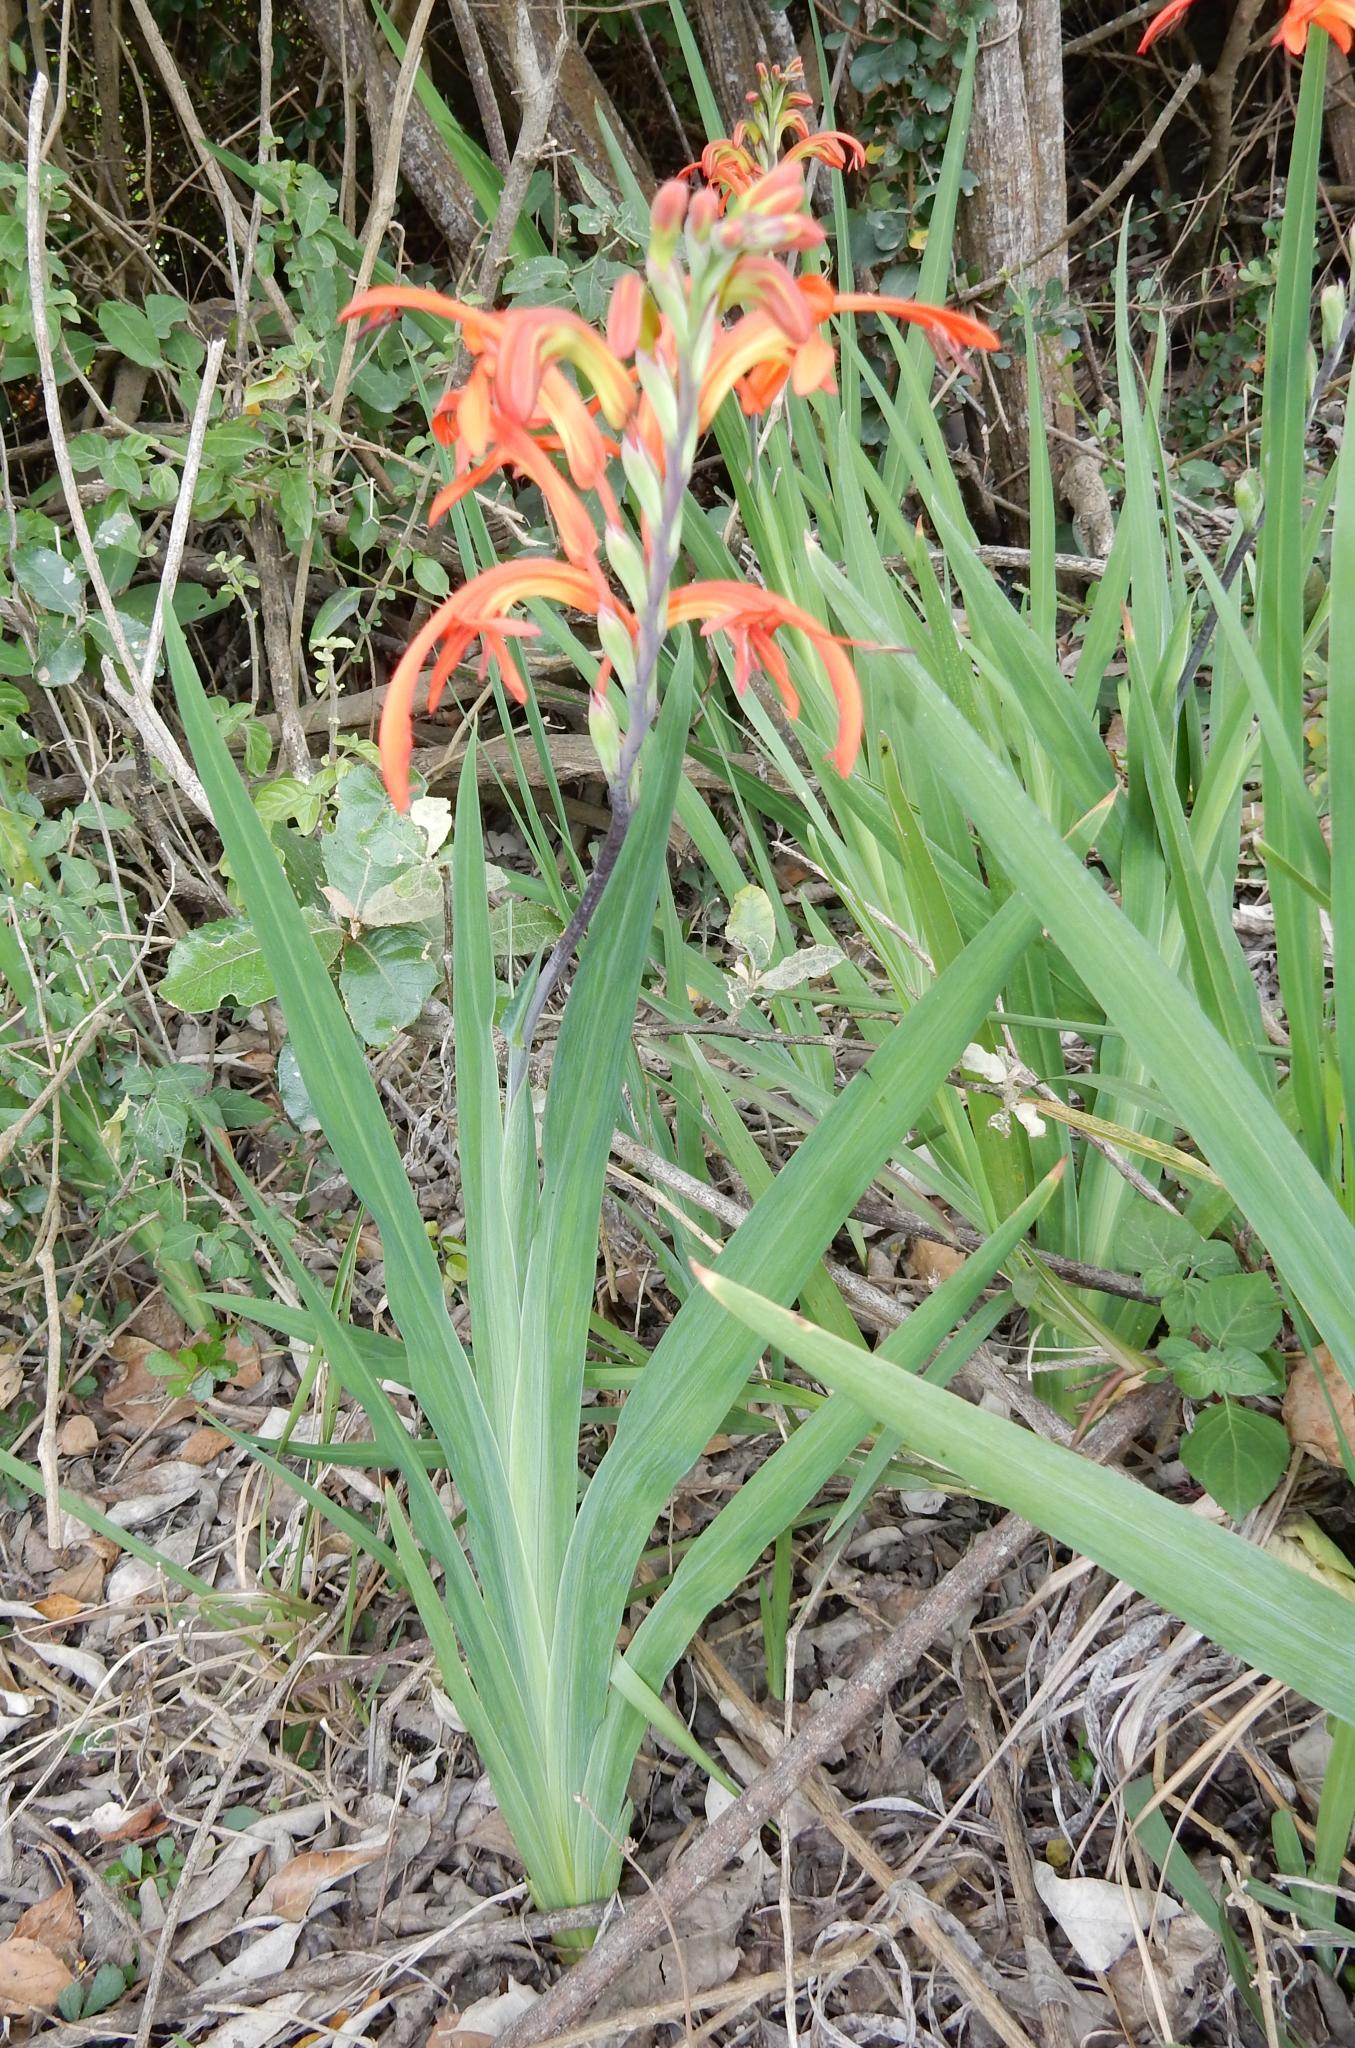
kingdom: Plantae
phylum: Tracheophyta
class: Liliopsida
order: Asparagales
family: Iridaceae
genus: Chasmanthe
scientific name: Chasmanthe aethiopica
